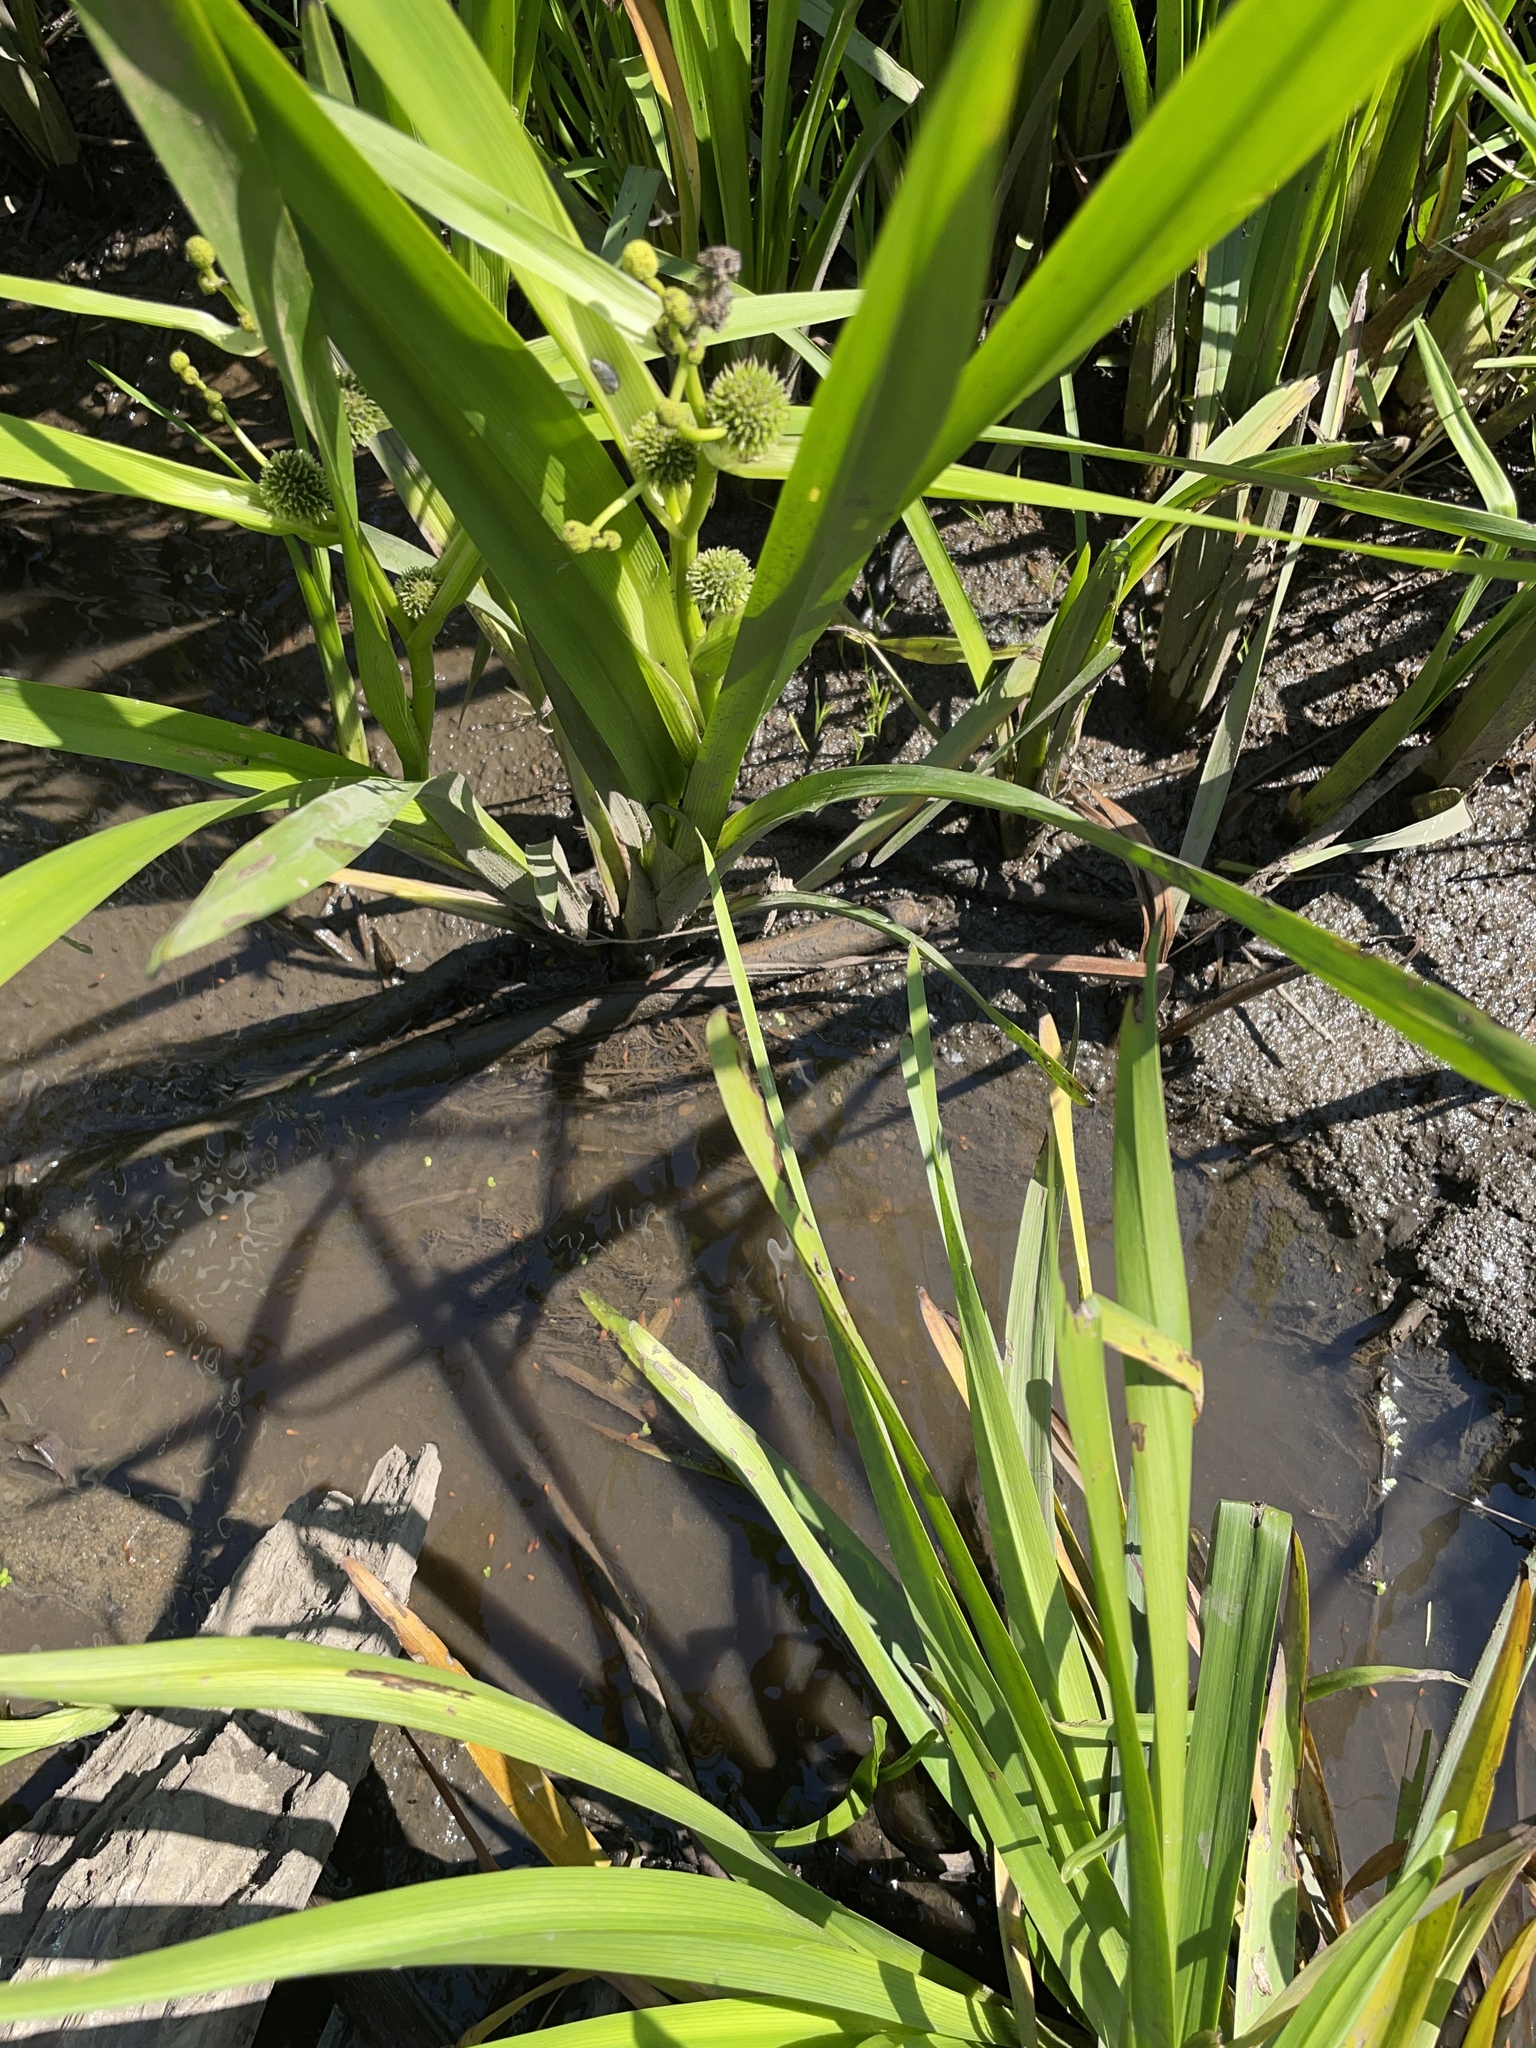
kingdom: Plantae
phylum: Tracheophyta
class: Liliopsida
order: Poales
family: Typhaceae
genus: Sparganium
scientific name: Sparganium erectum
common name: Branched bur-reed
